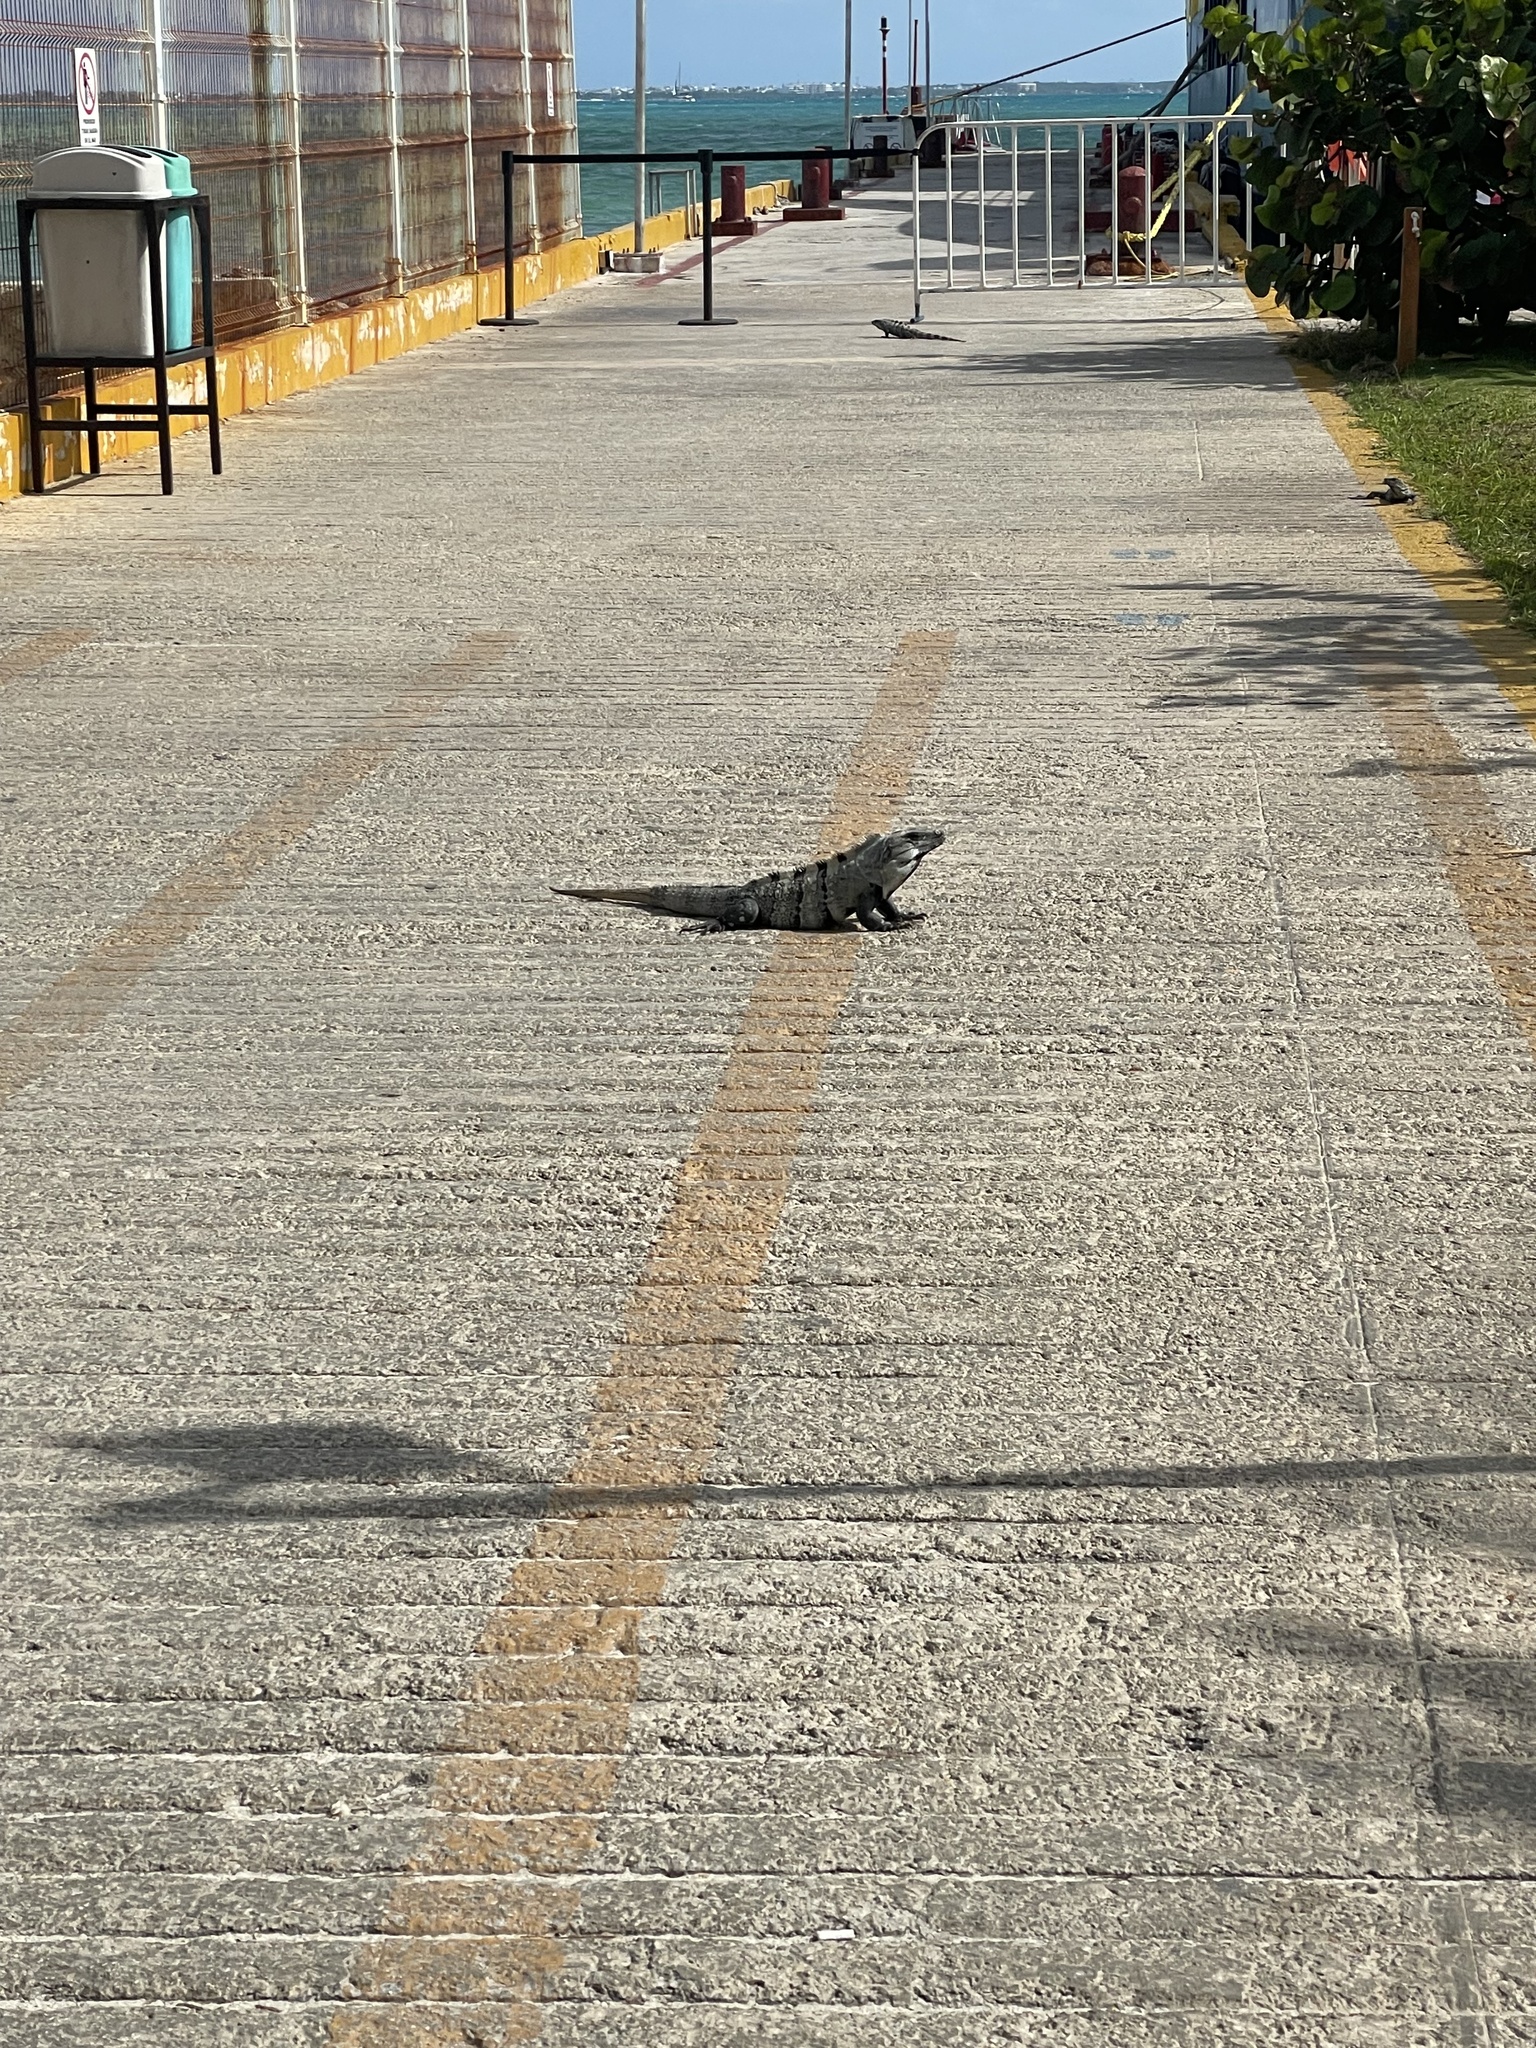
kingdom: Animalia
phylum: Chordata
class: Squamata
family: Iguanidae
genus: Ctenosaura
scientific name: Ctenosaura similis
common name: Black spiny-tailed iguana
